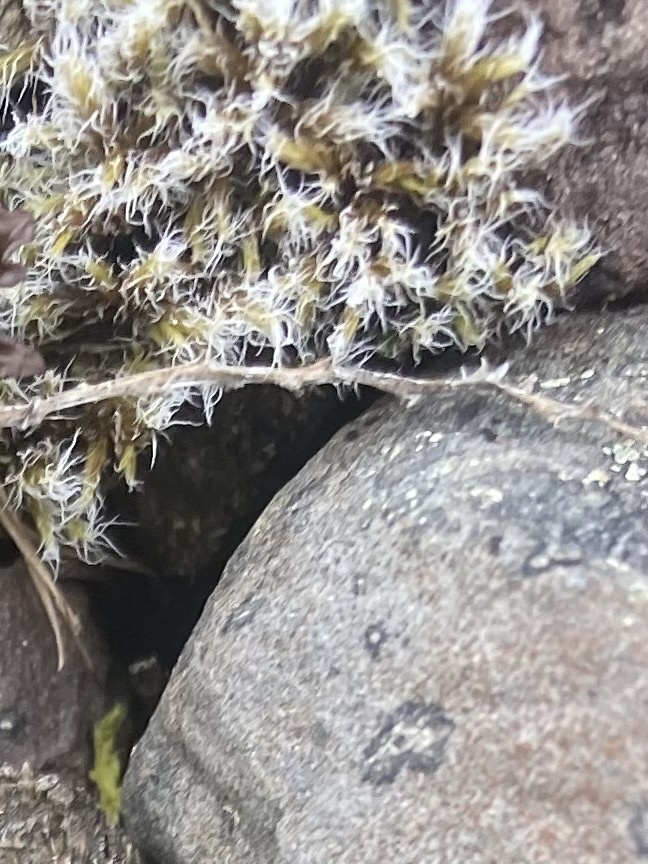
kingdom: Plantae
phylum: Bryophyta
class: Bryopsida
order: Grimmiales
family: Grimmiaceae
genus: Racomitrium
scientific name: Racomitrium lanuginosum
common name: Hoary rock moss
